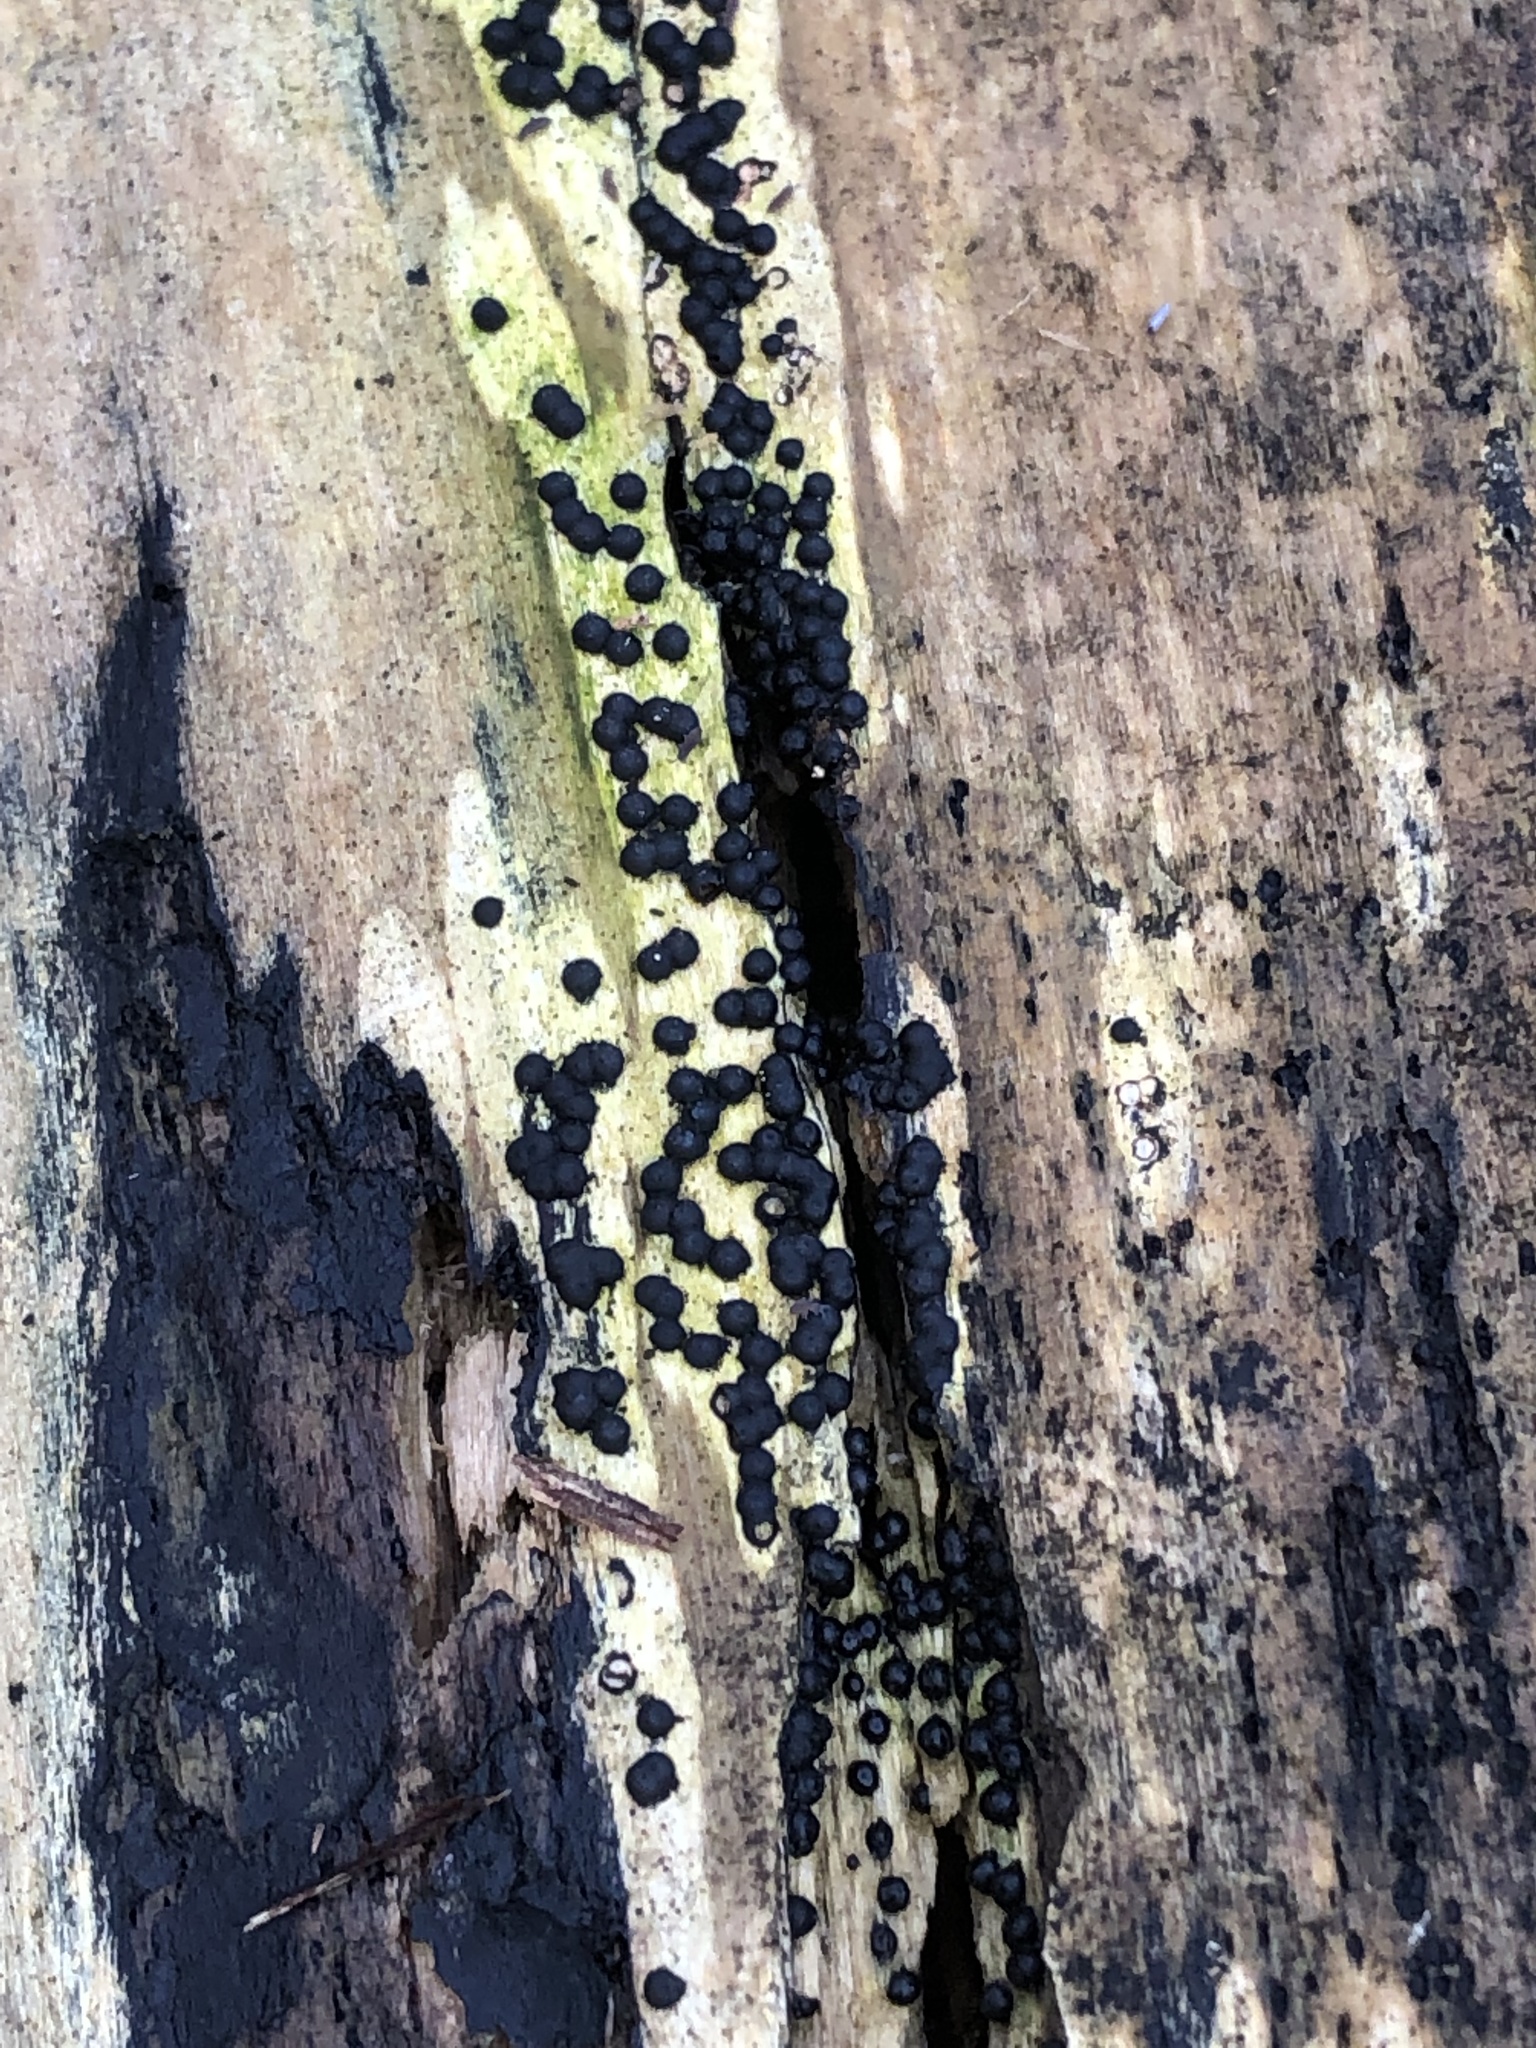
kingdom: Fungi
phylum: Ascomycota
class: Sordariomycetes
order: Xylariales
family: Xylariaceae
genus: Rosellinia
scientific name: Rosellinia subiculata
